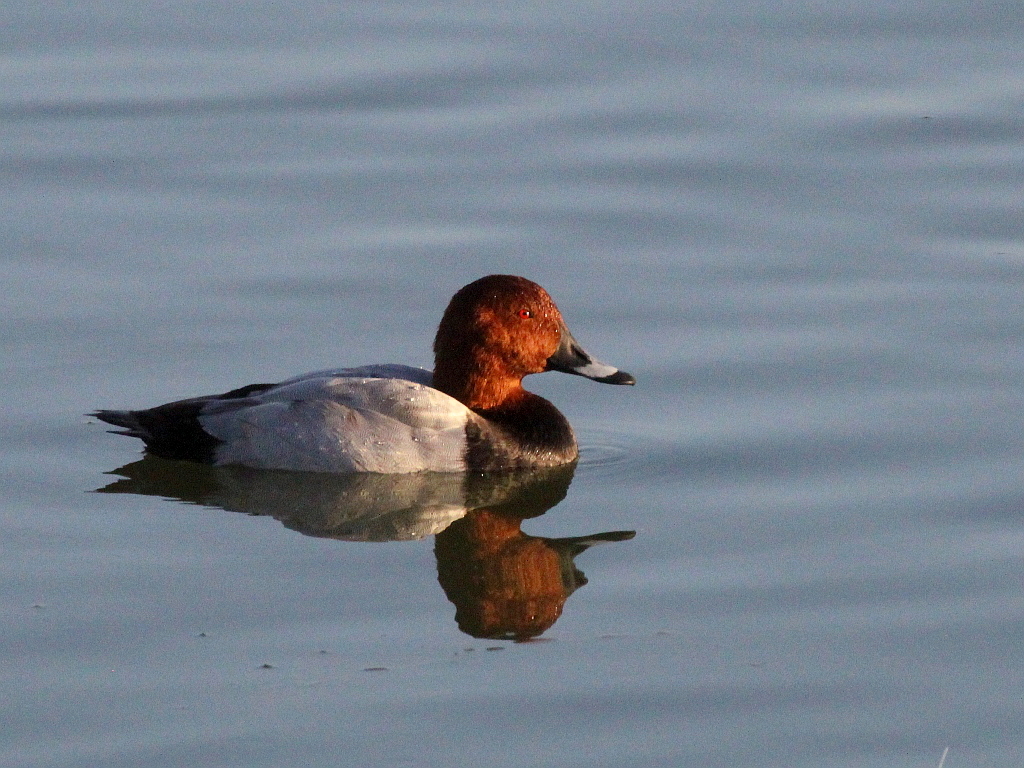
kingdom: Animalia
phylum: Chordata
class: Aves
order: Anseriformes
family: Anatidae
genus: Aythya
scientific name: Aythya ferina
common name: Common pochard
